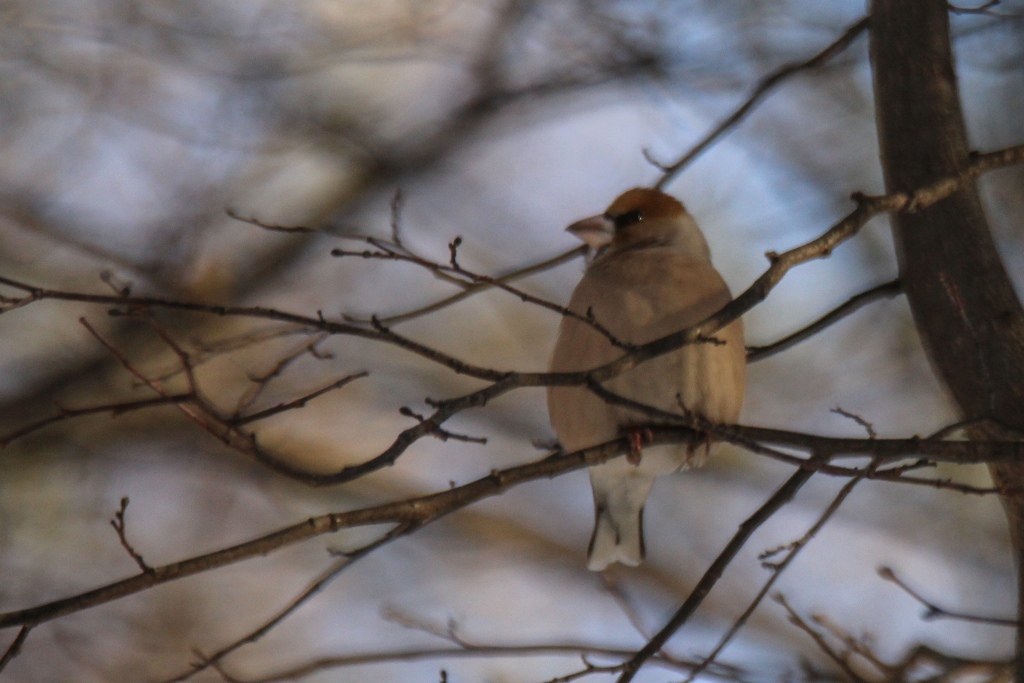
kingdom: Animalia
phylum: Chordata
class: Aves
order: Passeriformes
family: Fringillidae
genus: Coccothraustes
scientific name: Coccothraustes coccothraustes
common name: Hawfinch
